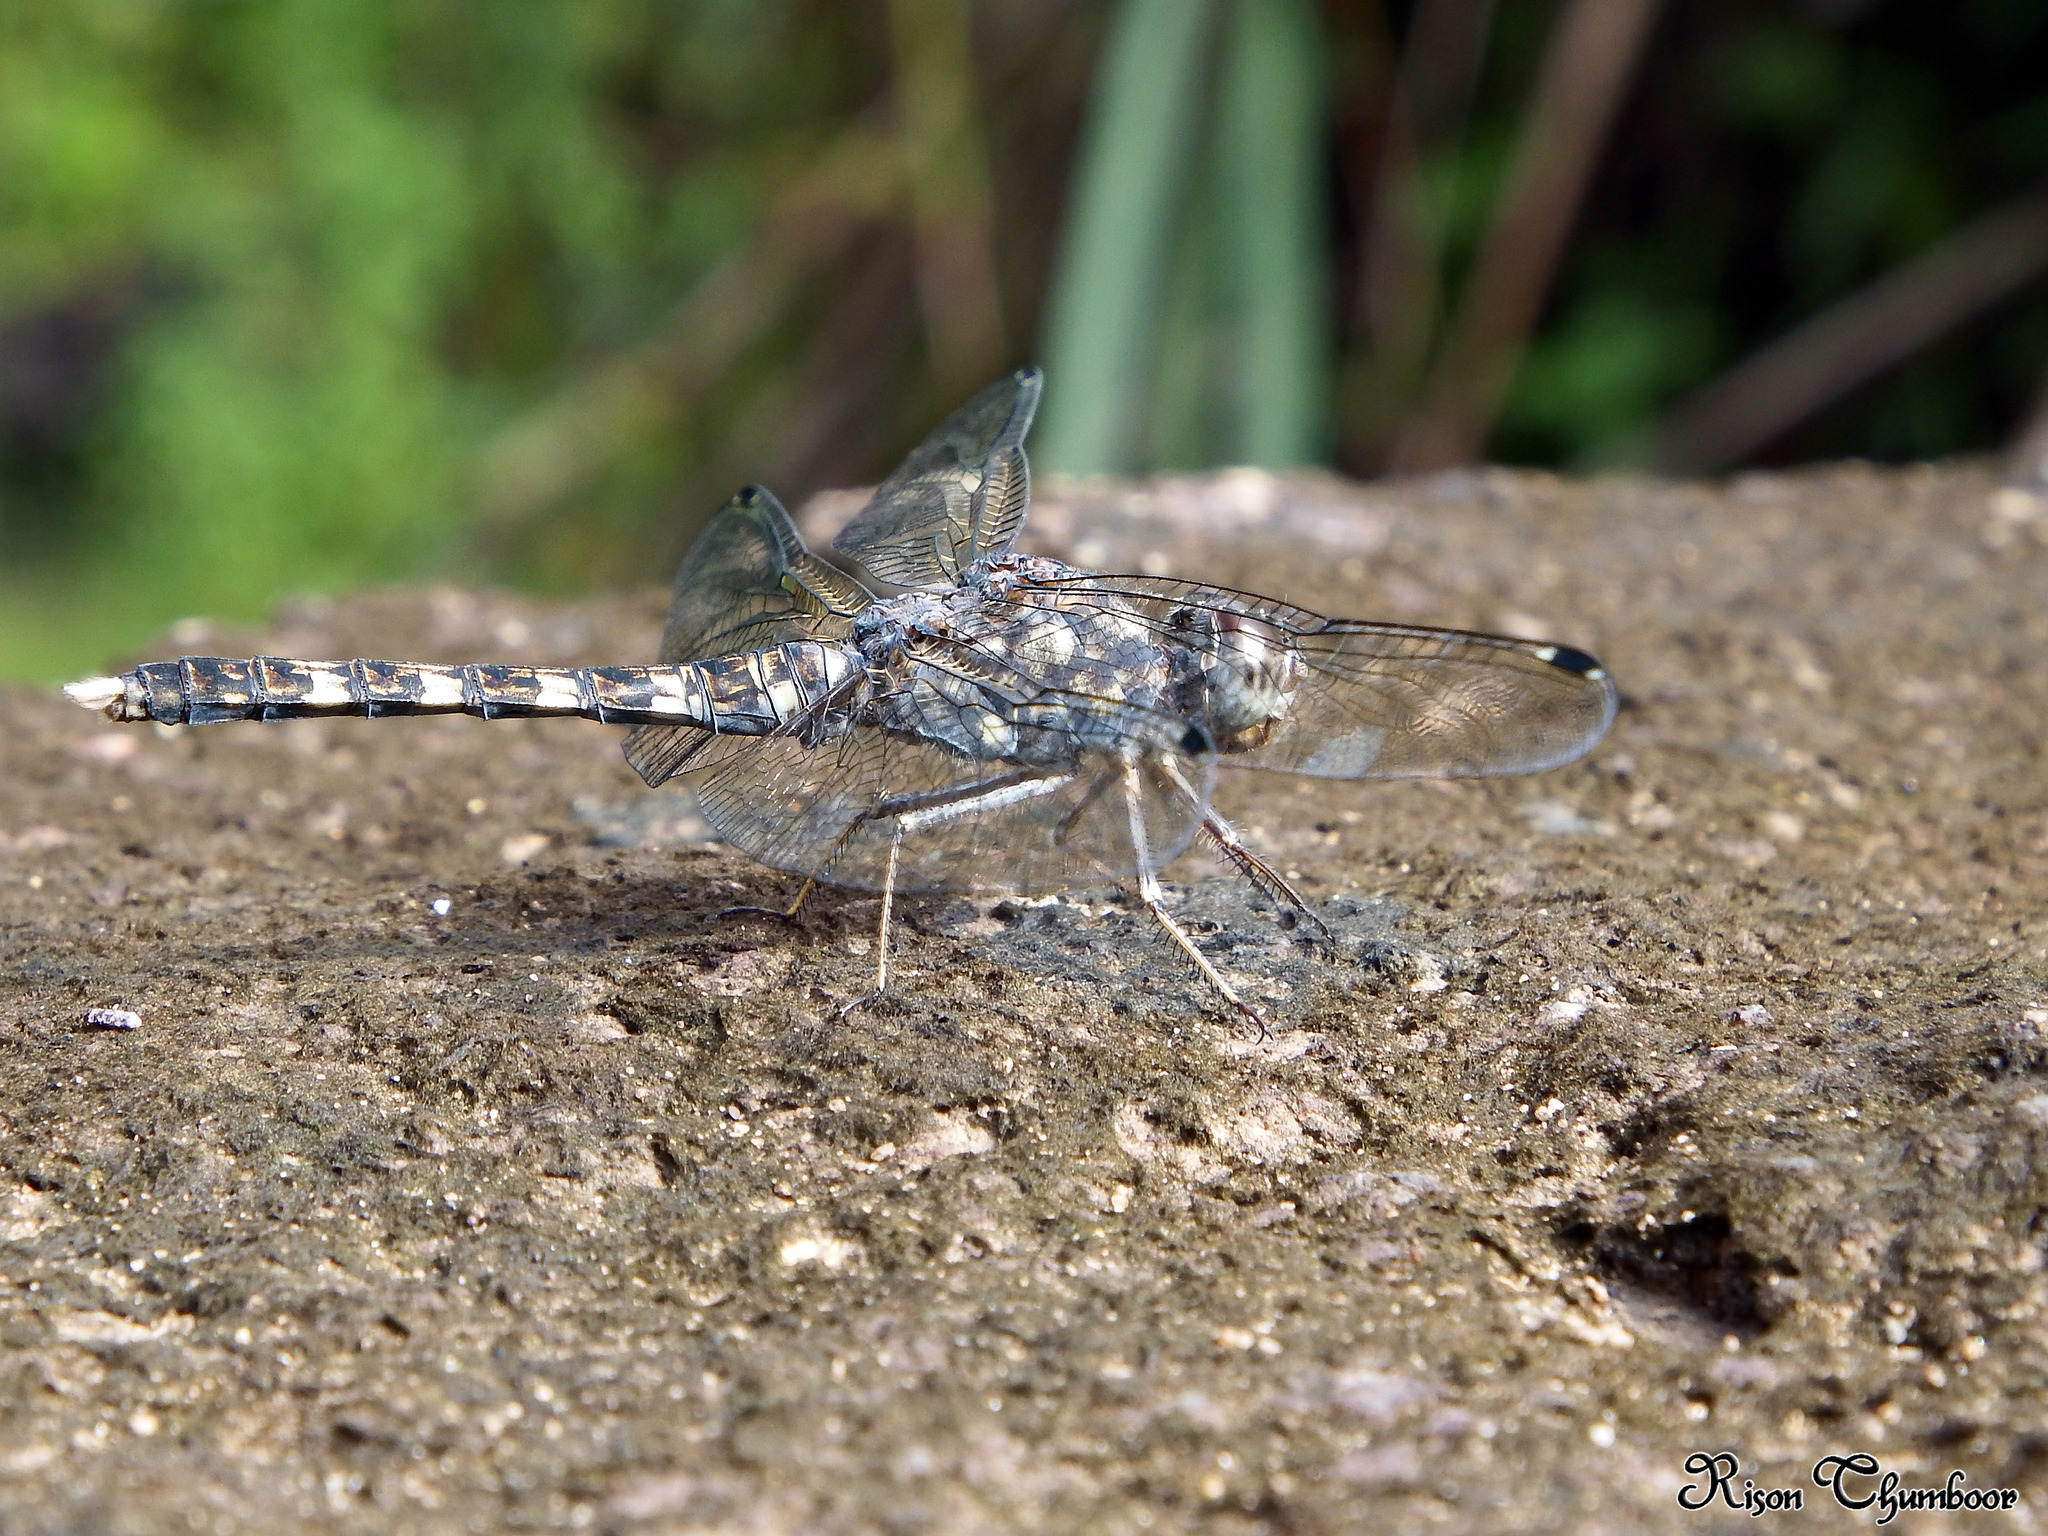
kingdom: Animalia
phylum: Arthropoda
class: Insecta
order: Odonata
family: Libellulidae
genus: Bradinopyga
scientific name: Bradinopyga geminata
